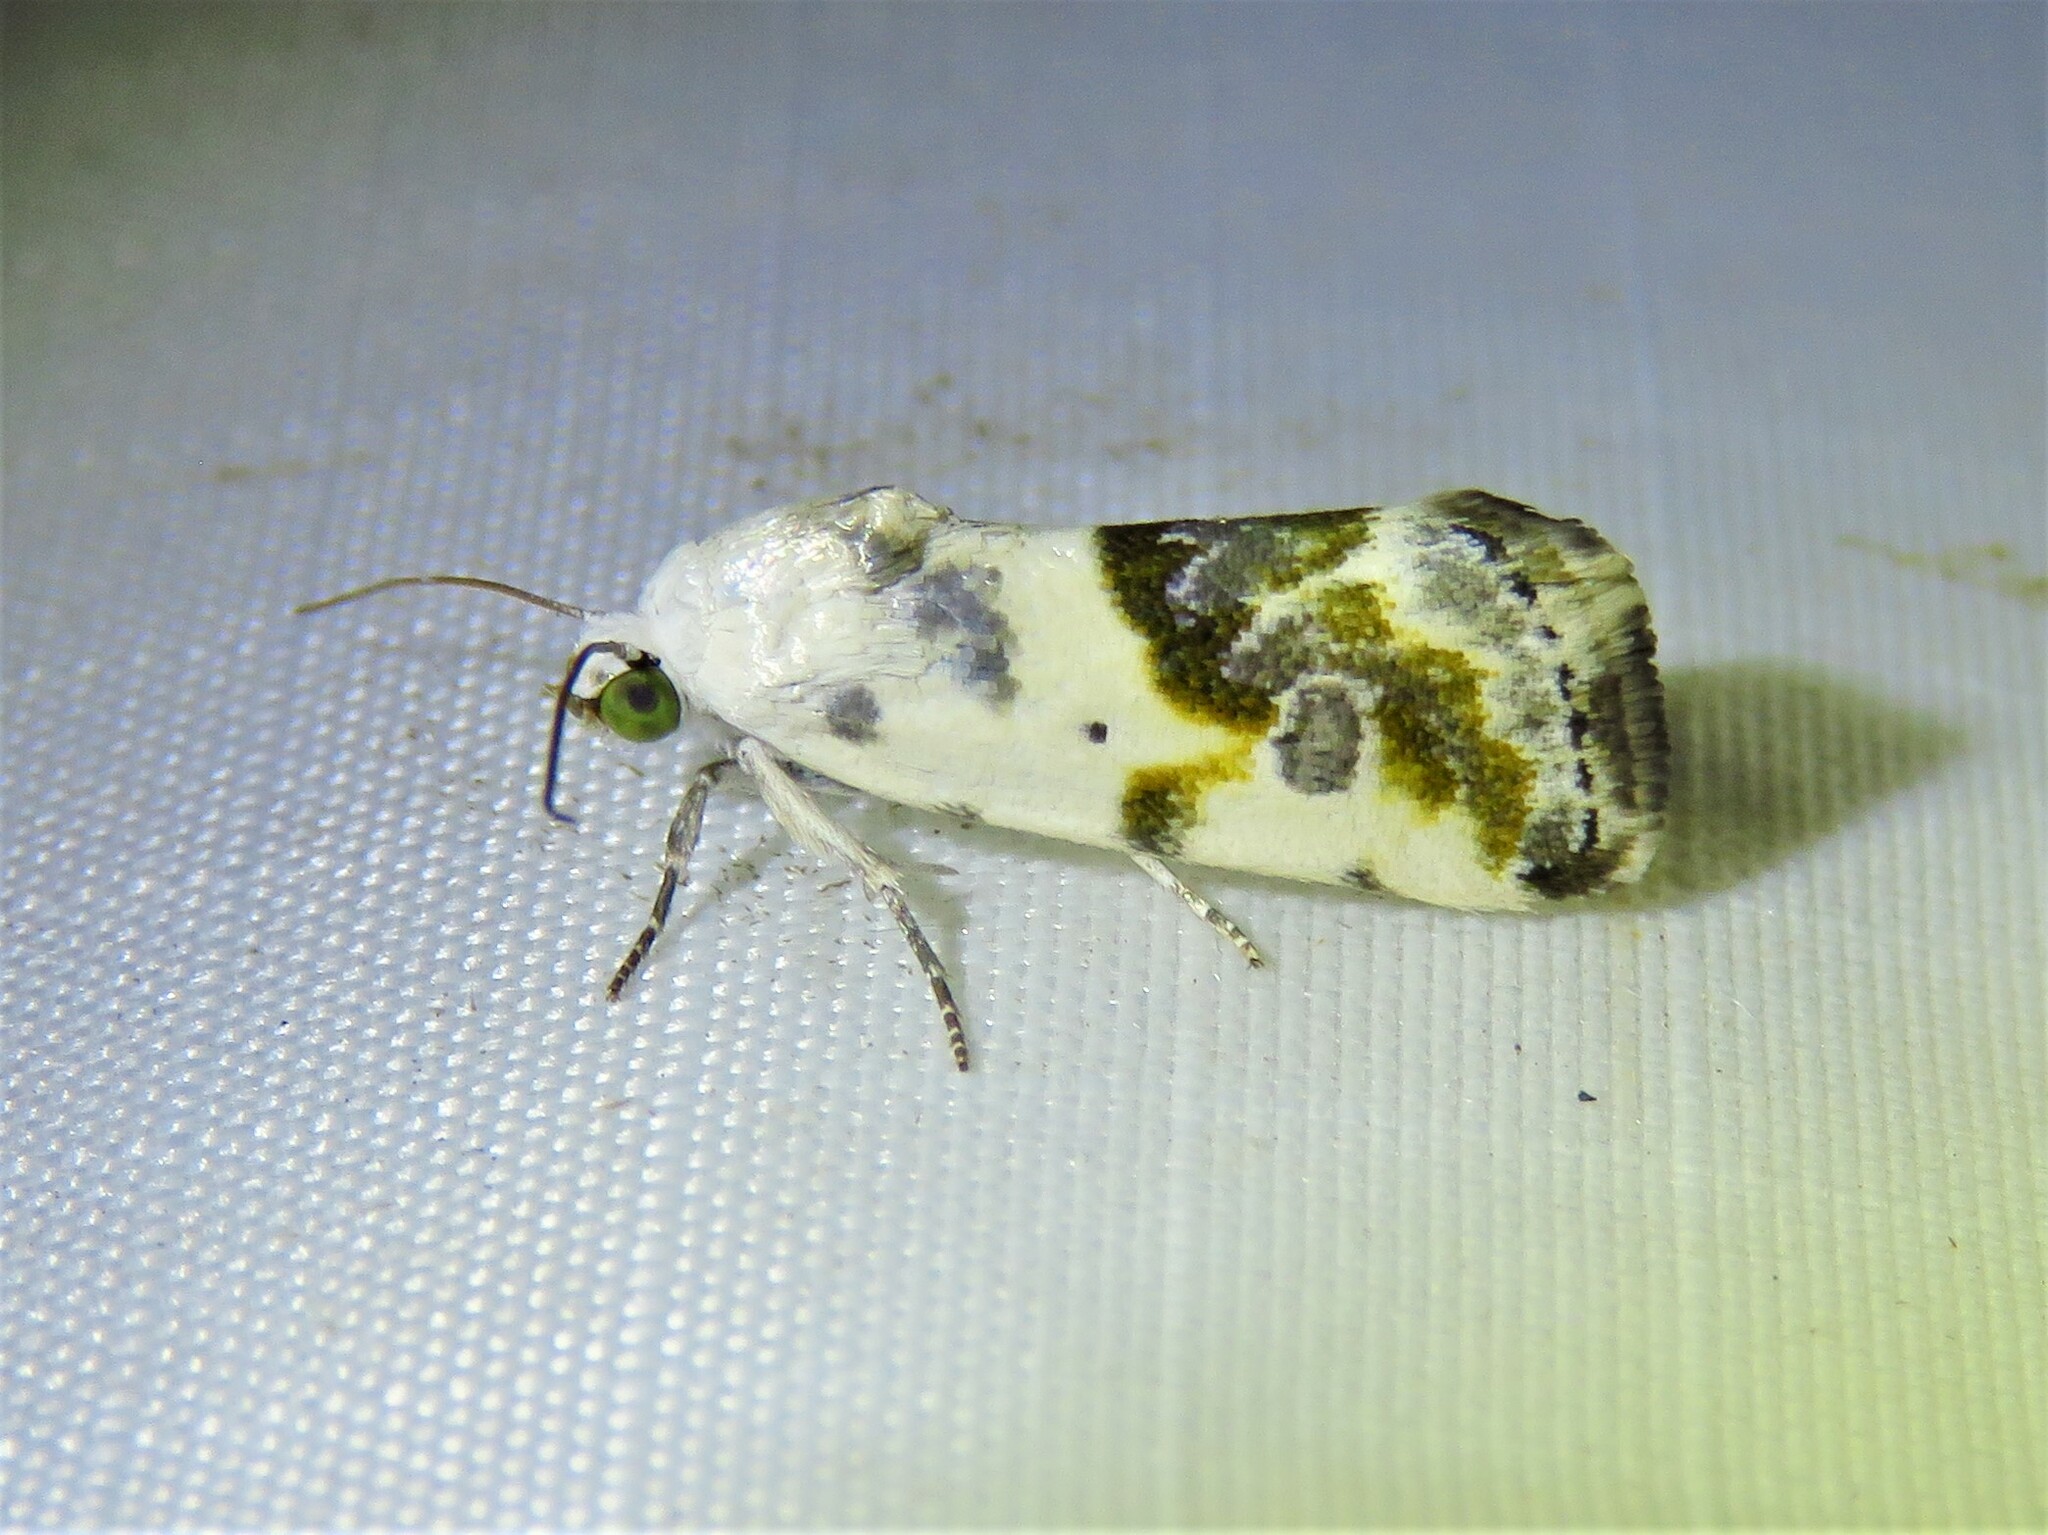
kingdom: Animalia
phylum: Arthropoda
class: Insecta
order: Lepidoptera
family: Noctuidae
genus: Acontia
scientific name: Acontia candefacta
